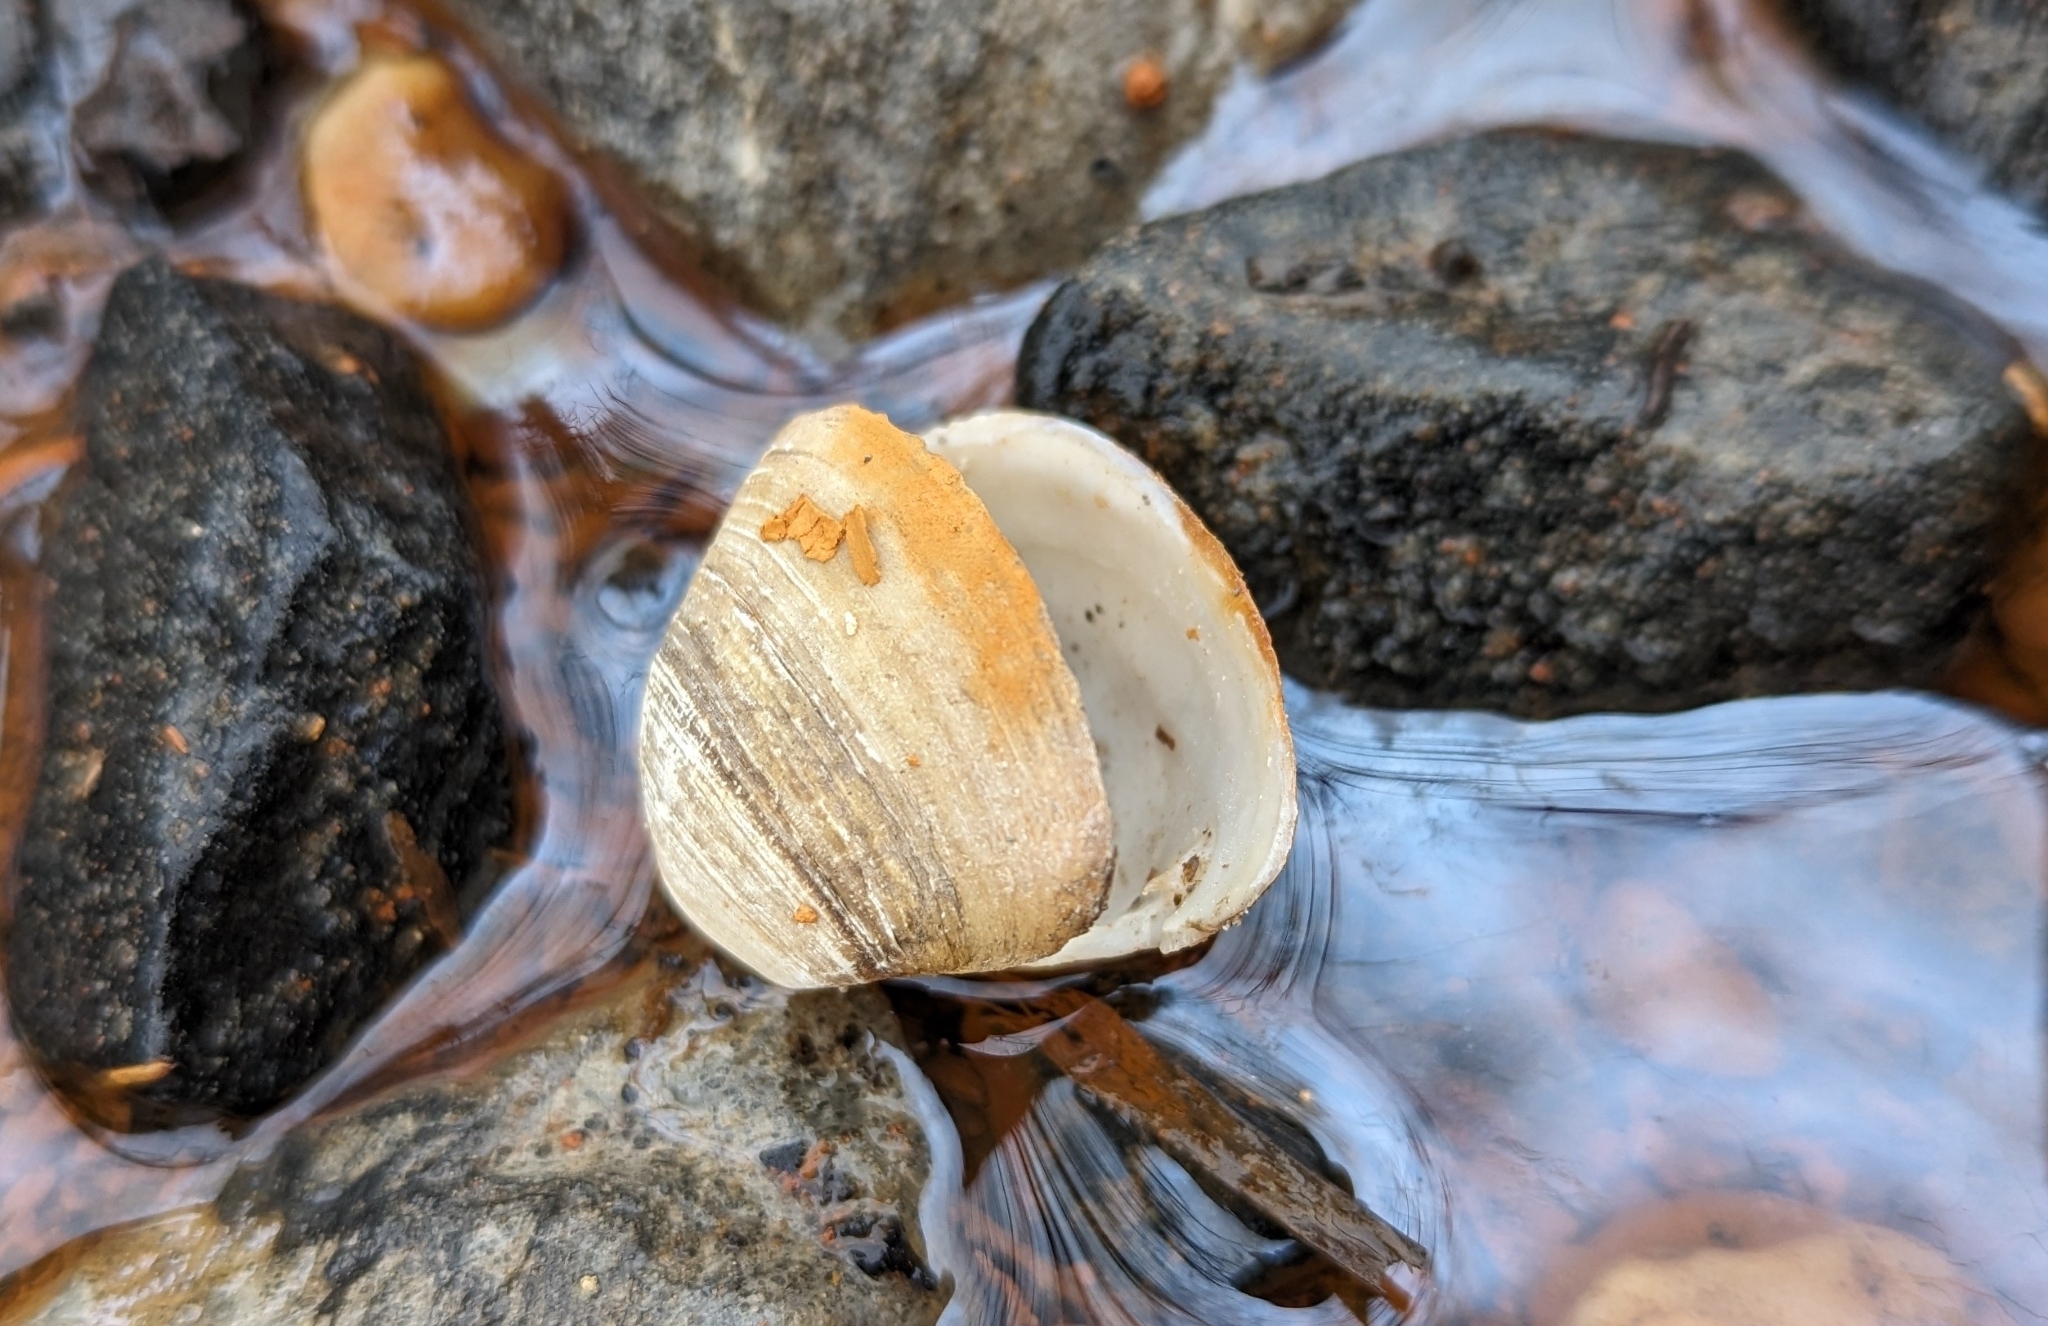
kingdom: Animalia
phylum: Mollusca
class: Bivalvia
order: Venerida
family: Mactridae
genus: Rangia
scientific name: Rangia cuneata
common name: Atlantic rangia
